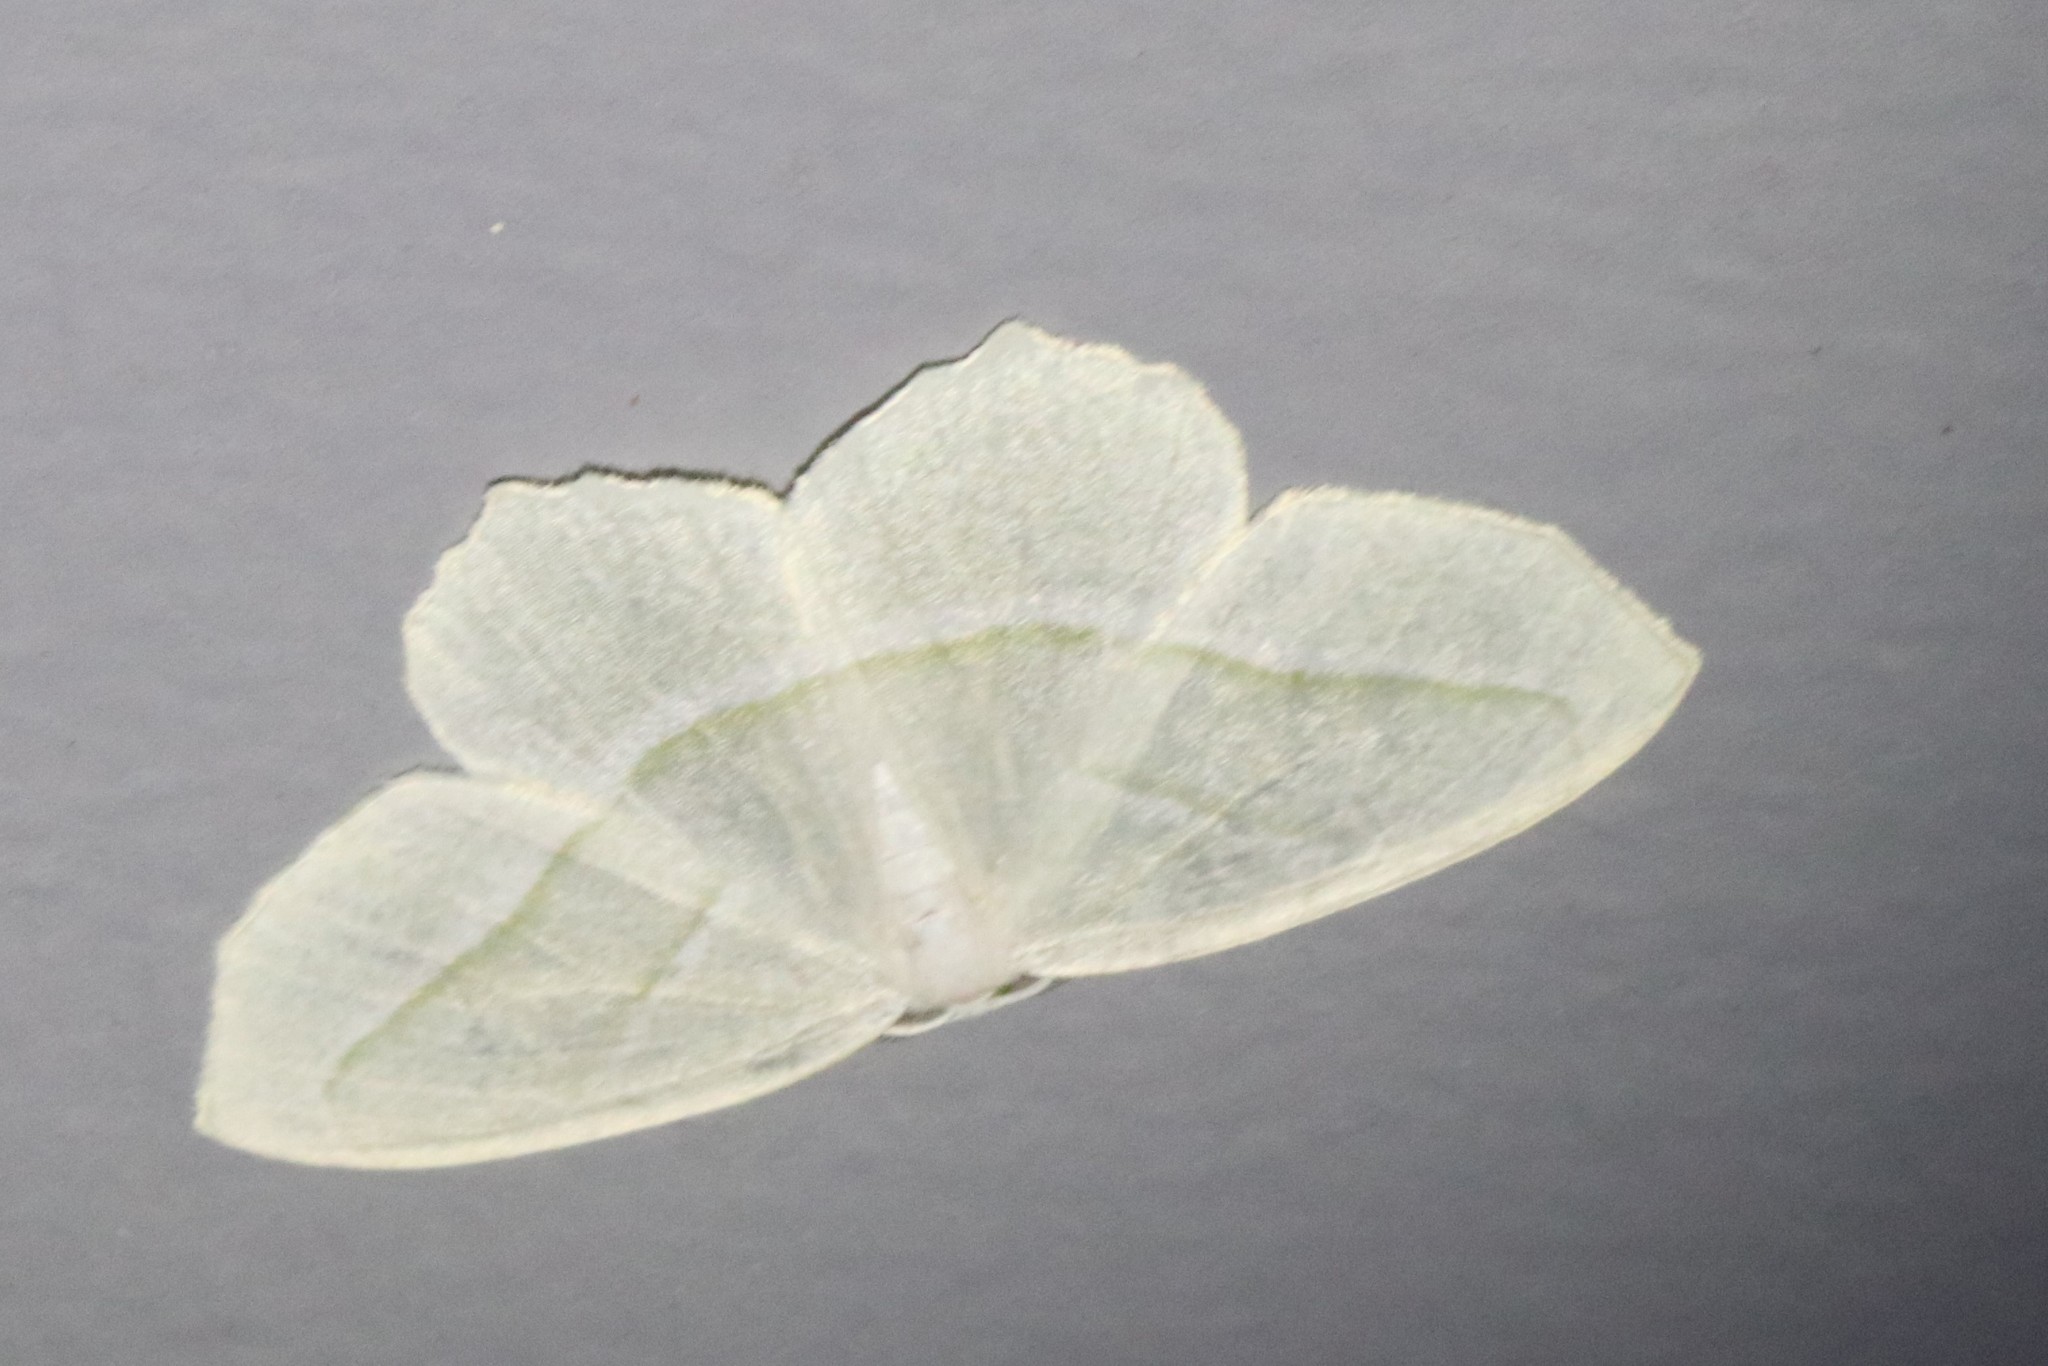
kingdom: Animalia
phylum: Arthropoda
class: Insecta
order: Lepidoptera
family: Geometridae
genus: Campaea
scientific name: Campaea perlata
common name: Fringed looper
